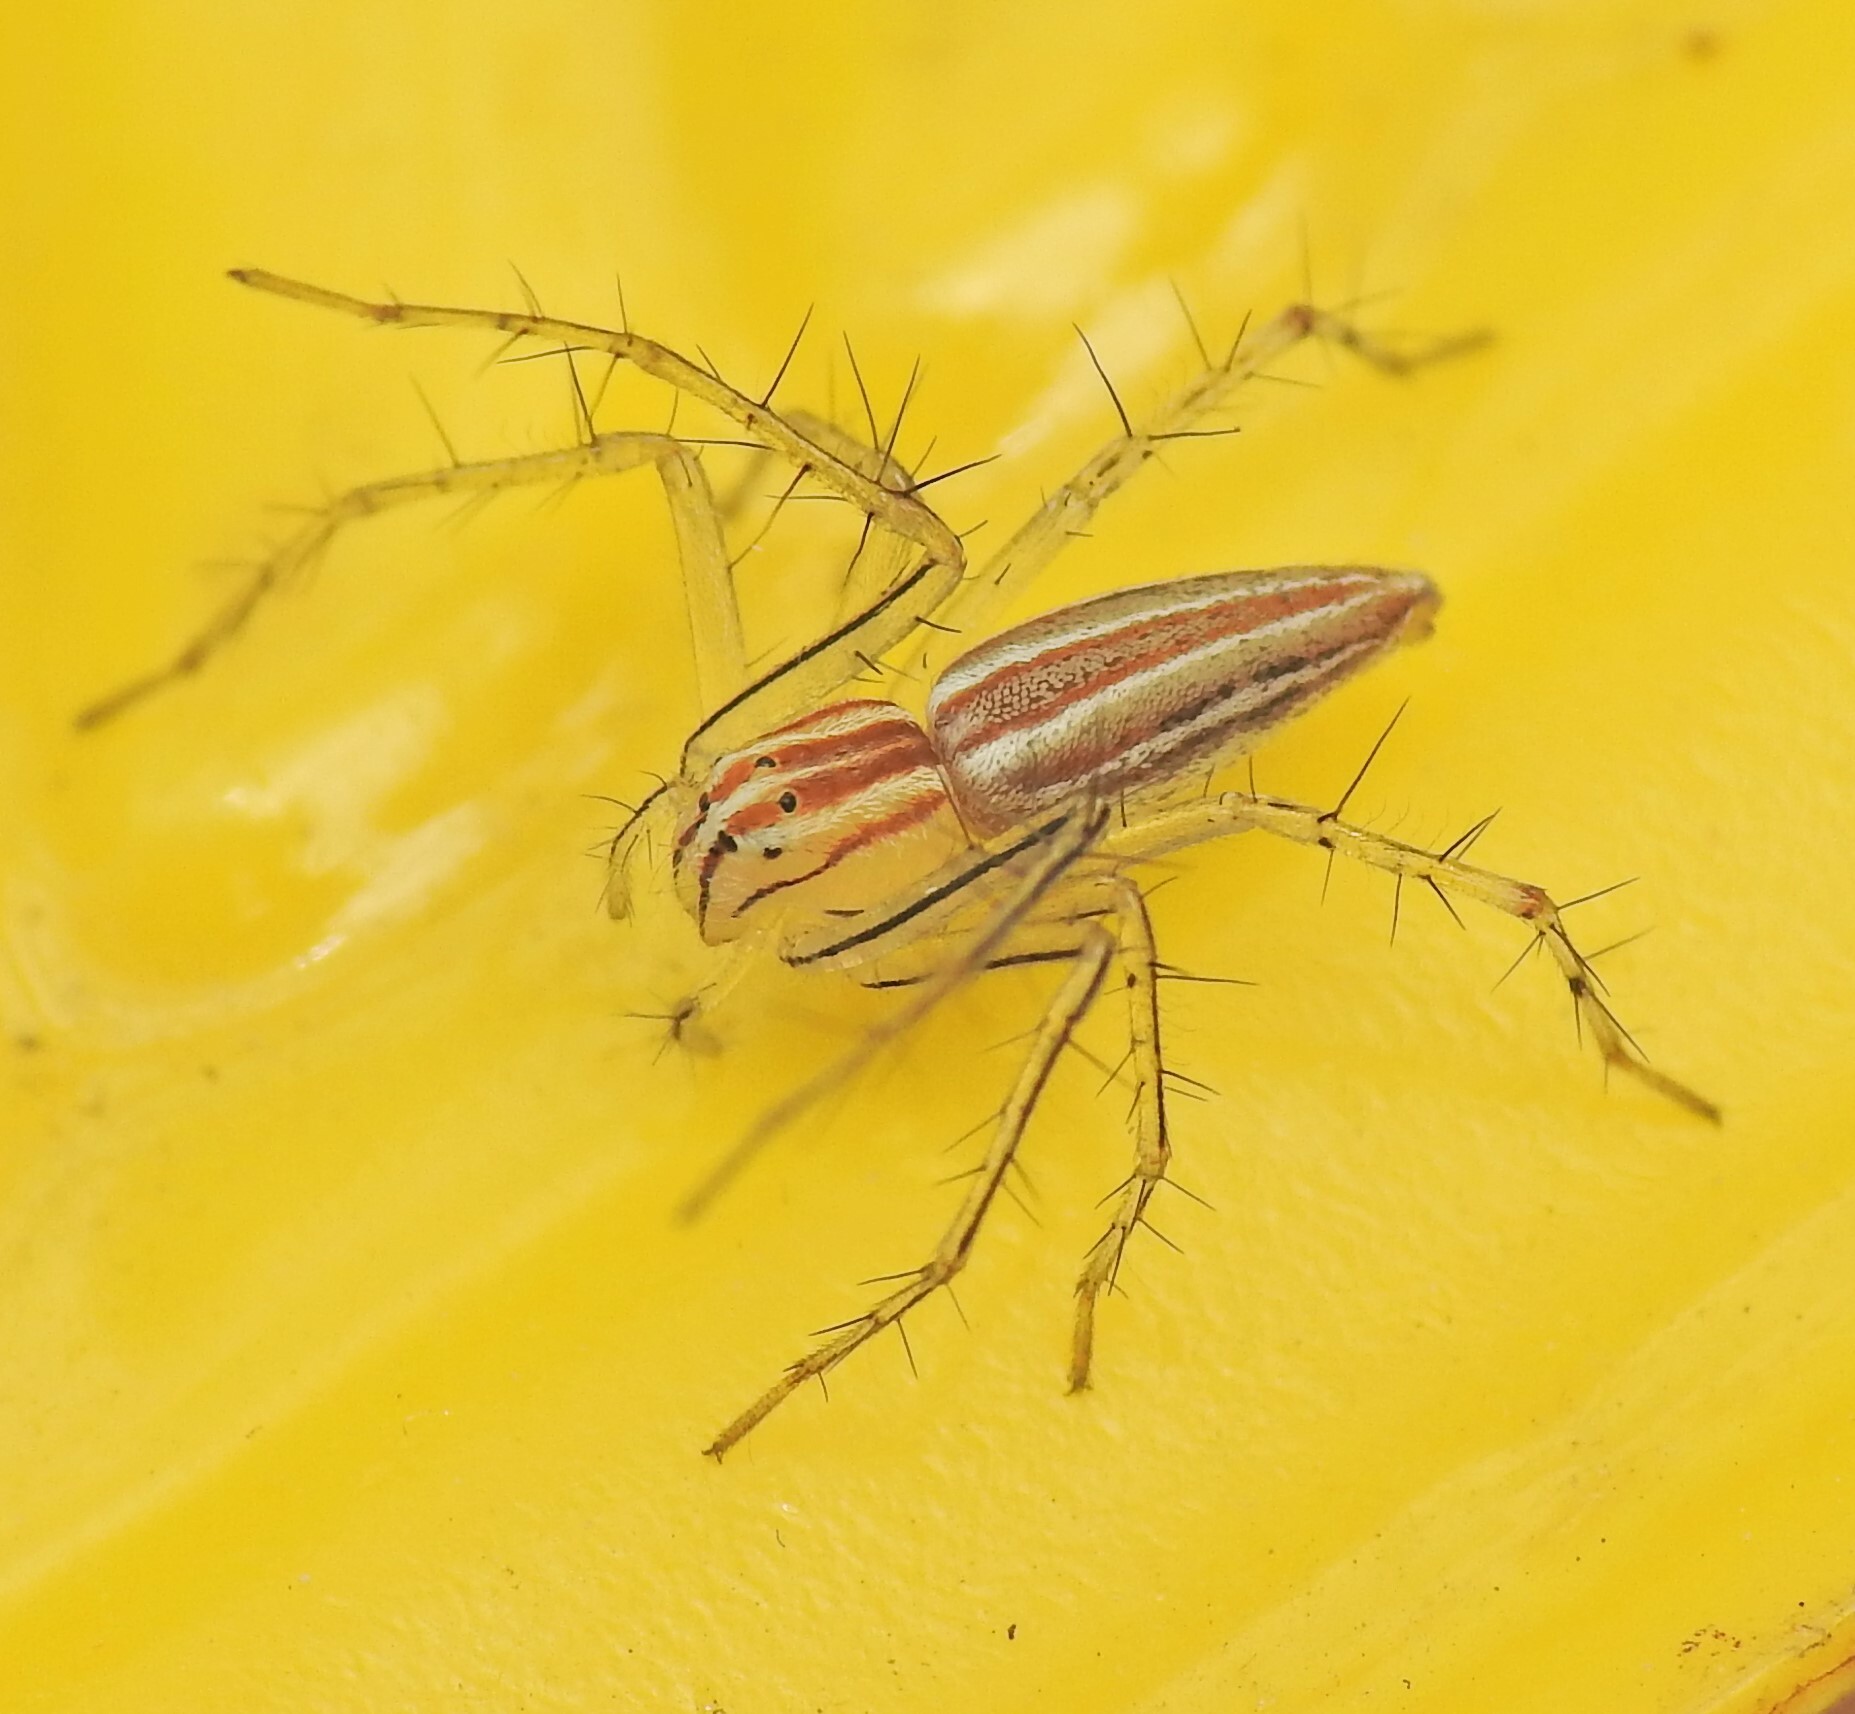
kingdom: Animalia
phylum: Arthropoda
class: Arachnida
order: Araneae
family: Oxyopidae
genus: Oxyopes
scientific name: Oxyopes macilentus
